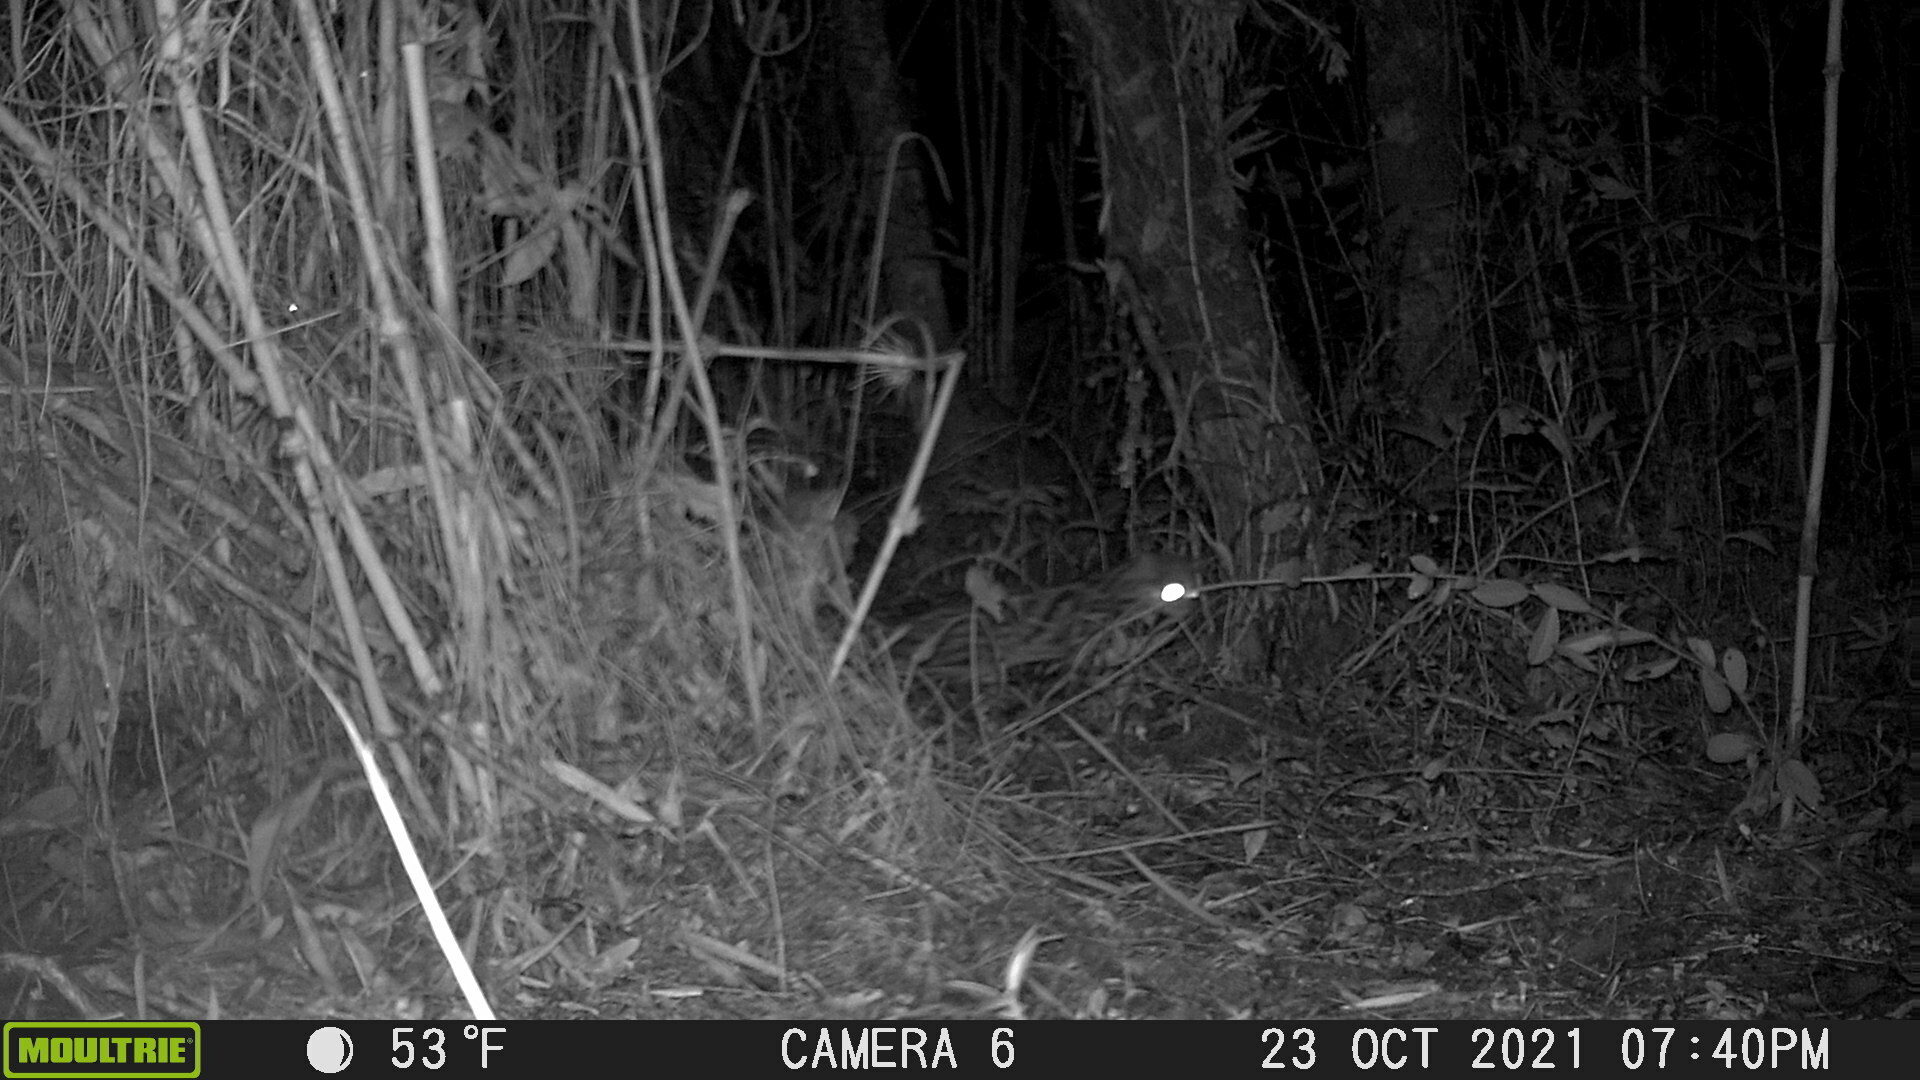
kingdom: Animalia
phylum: Chordata
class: Mammalia
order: Carnivora
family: Felidae
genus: Leopardus
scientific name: Leopardus tigrinus
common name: Oncilla
